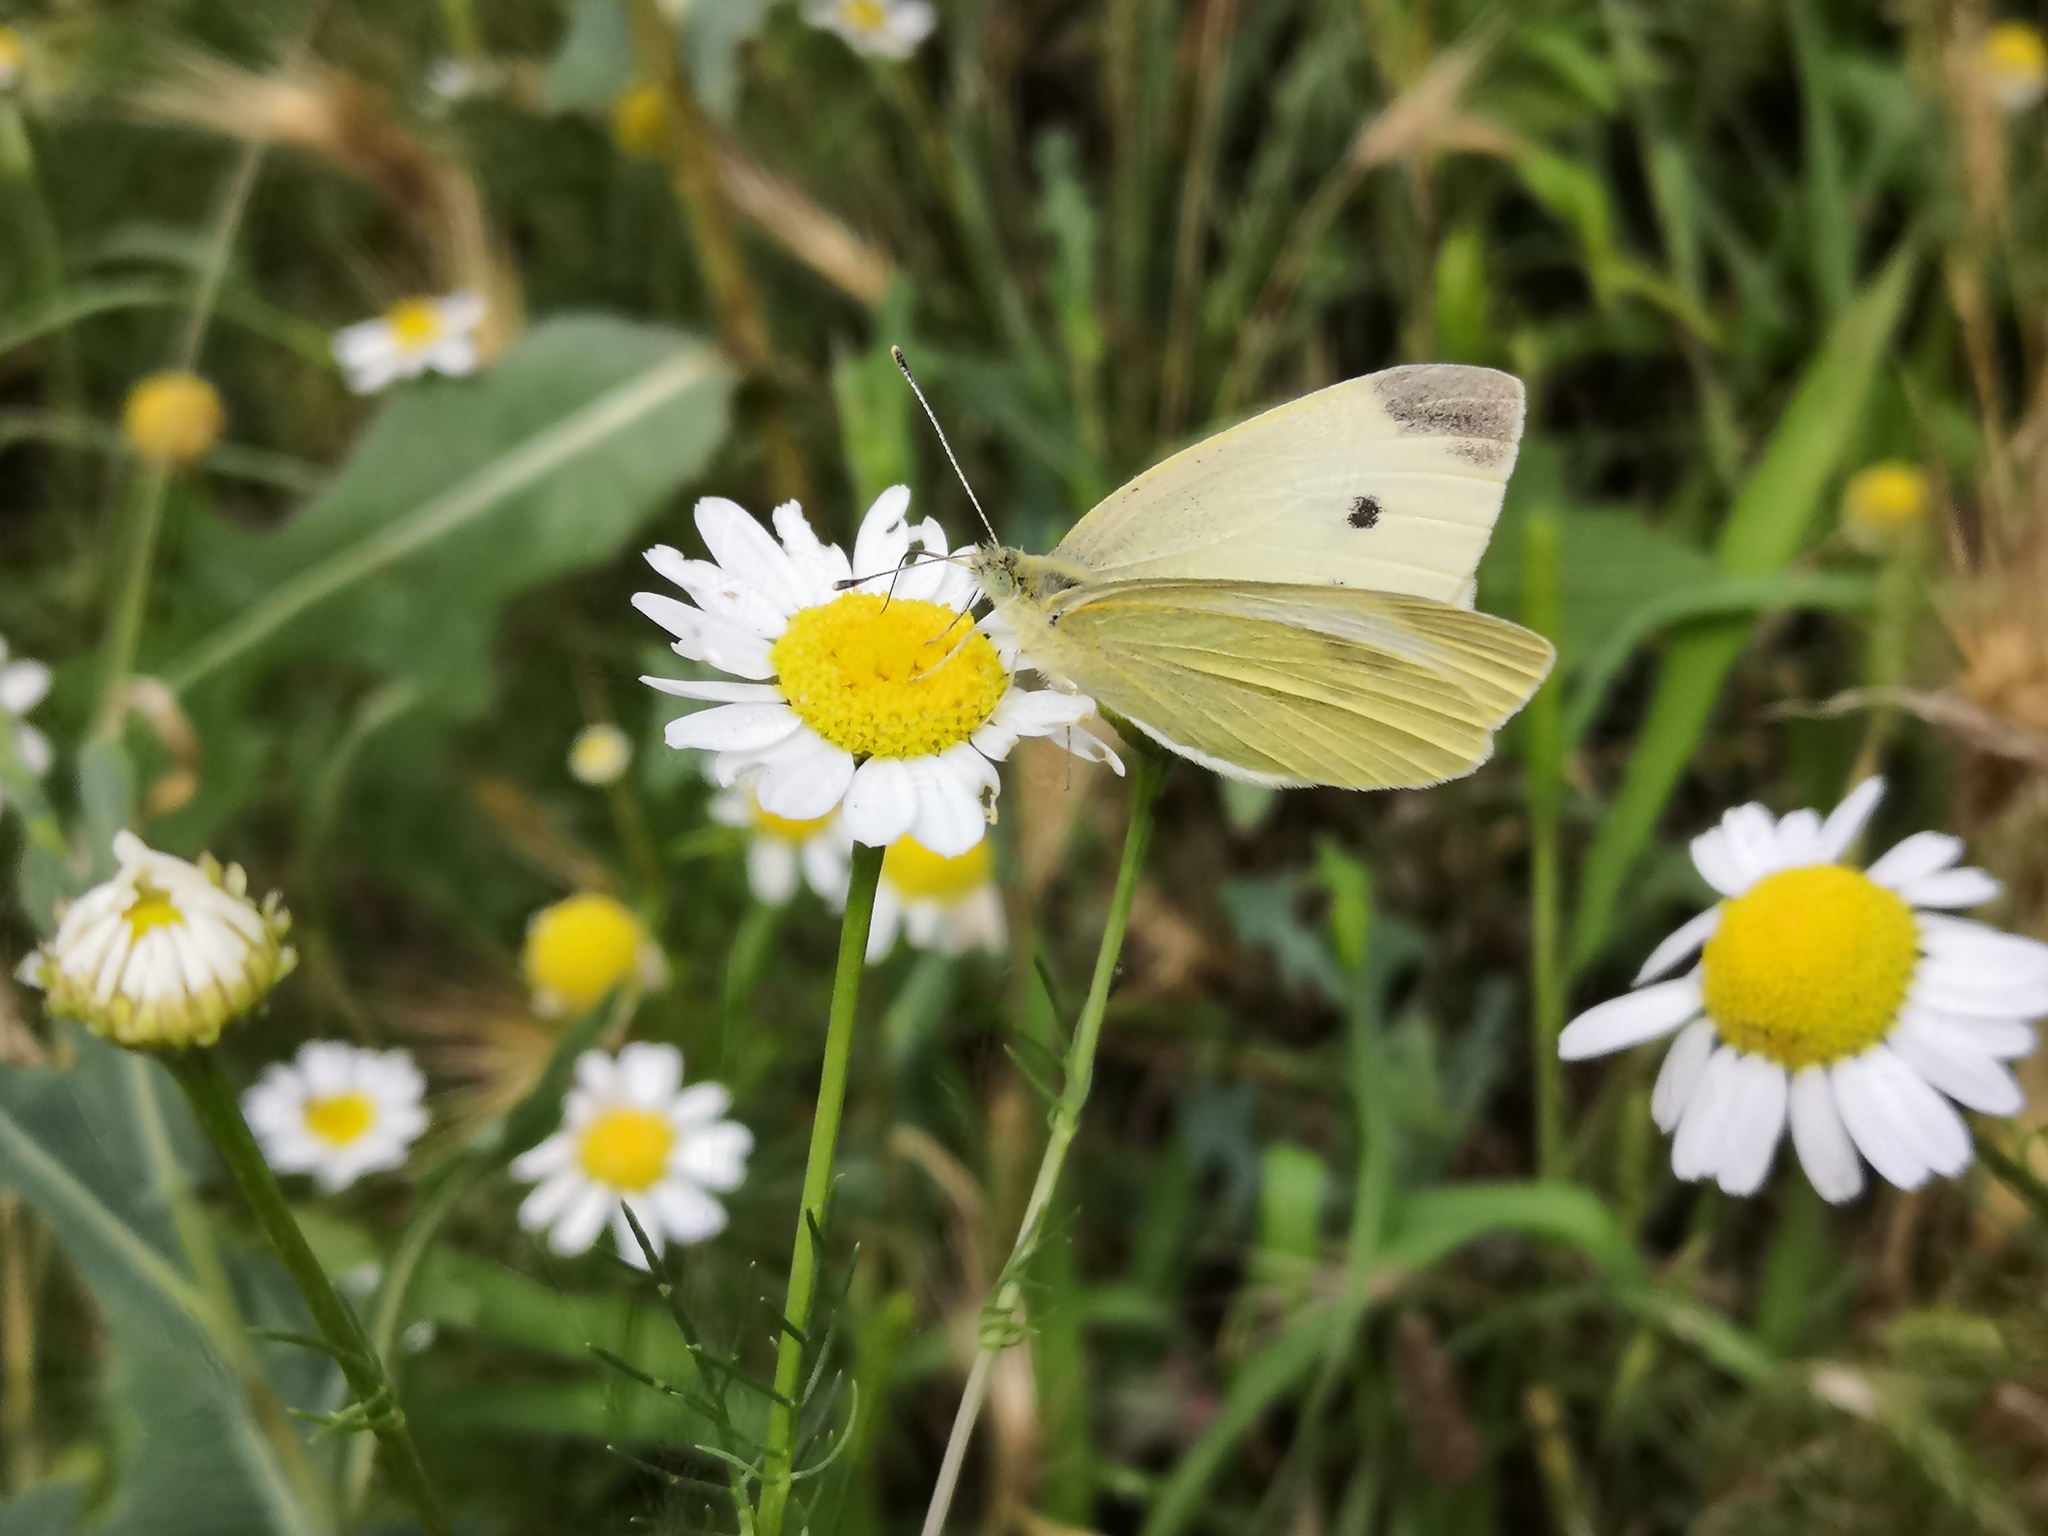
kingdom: Animalia
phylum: Arthropoda
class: Insecta
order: Lepidoptera
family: Pieridae
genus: Pieris
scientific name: Pieris rapae
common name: Small white
